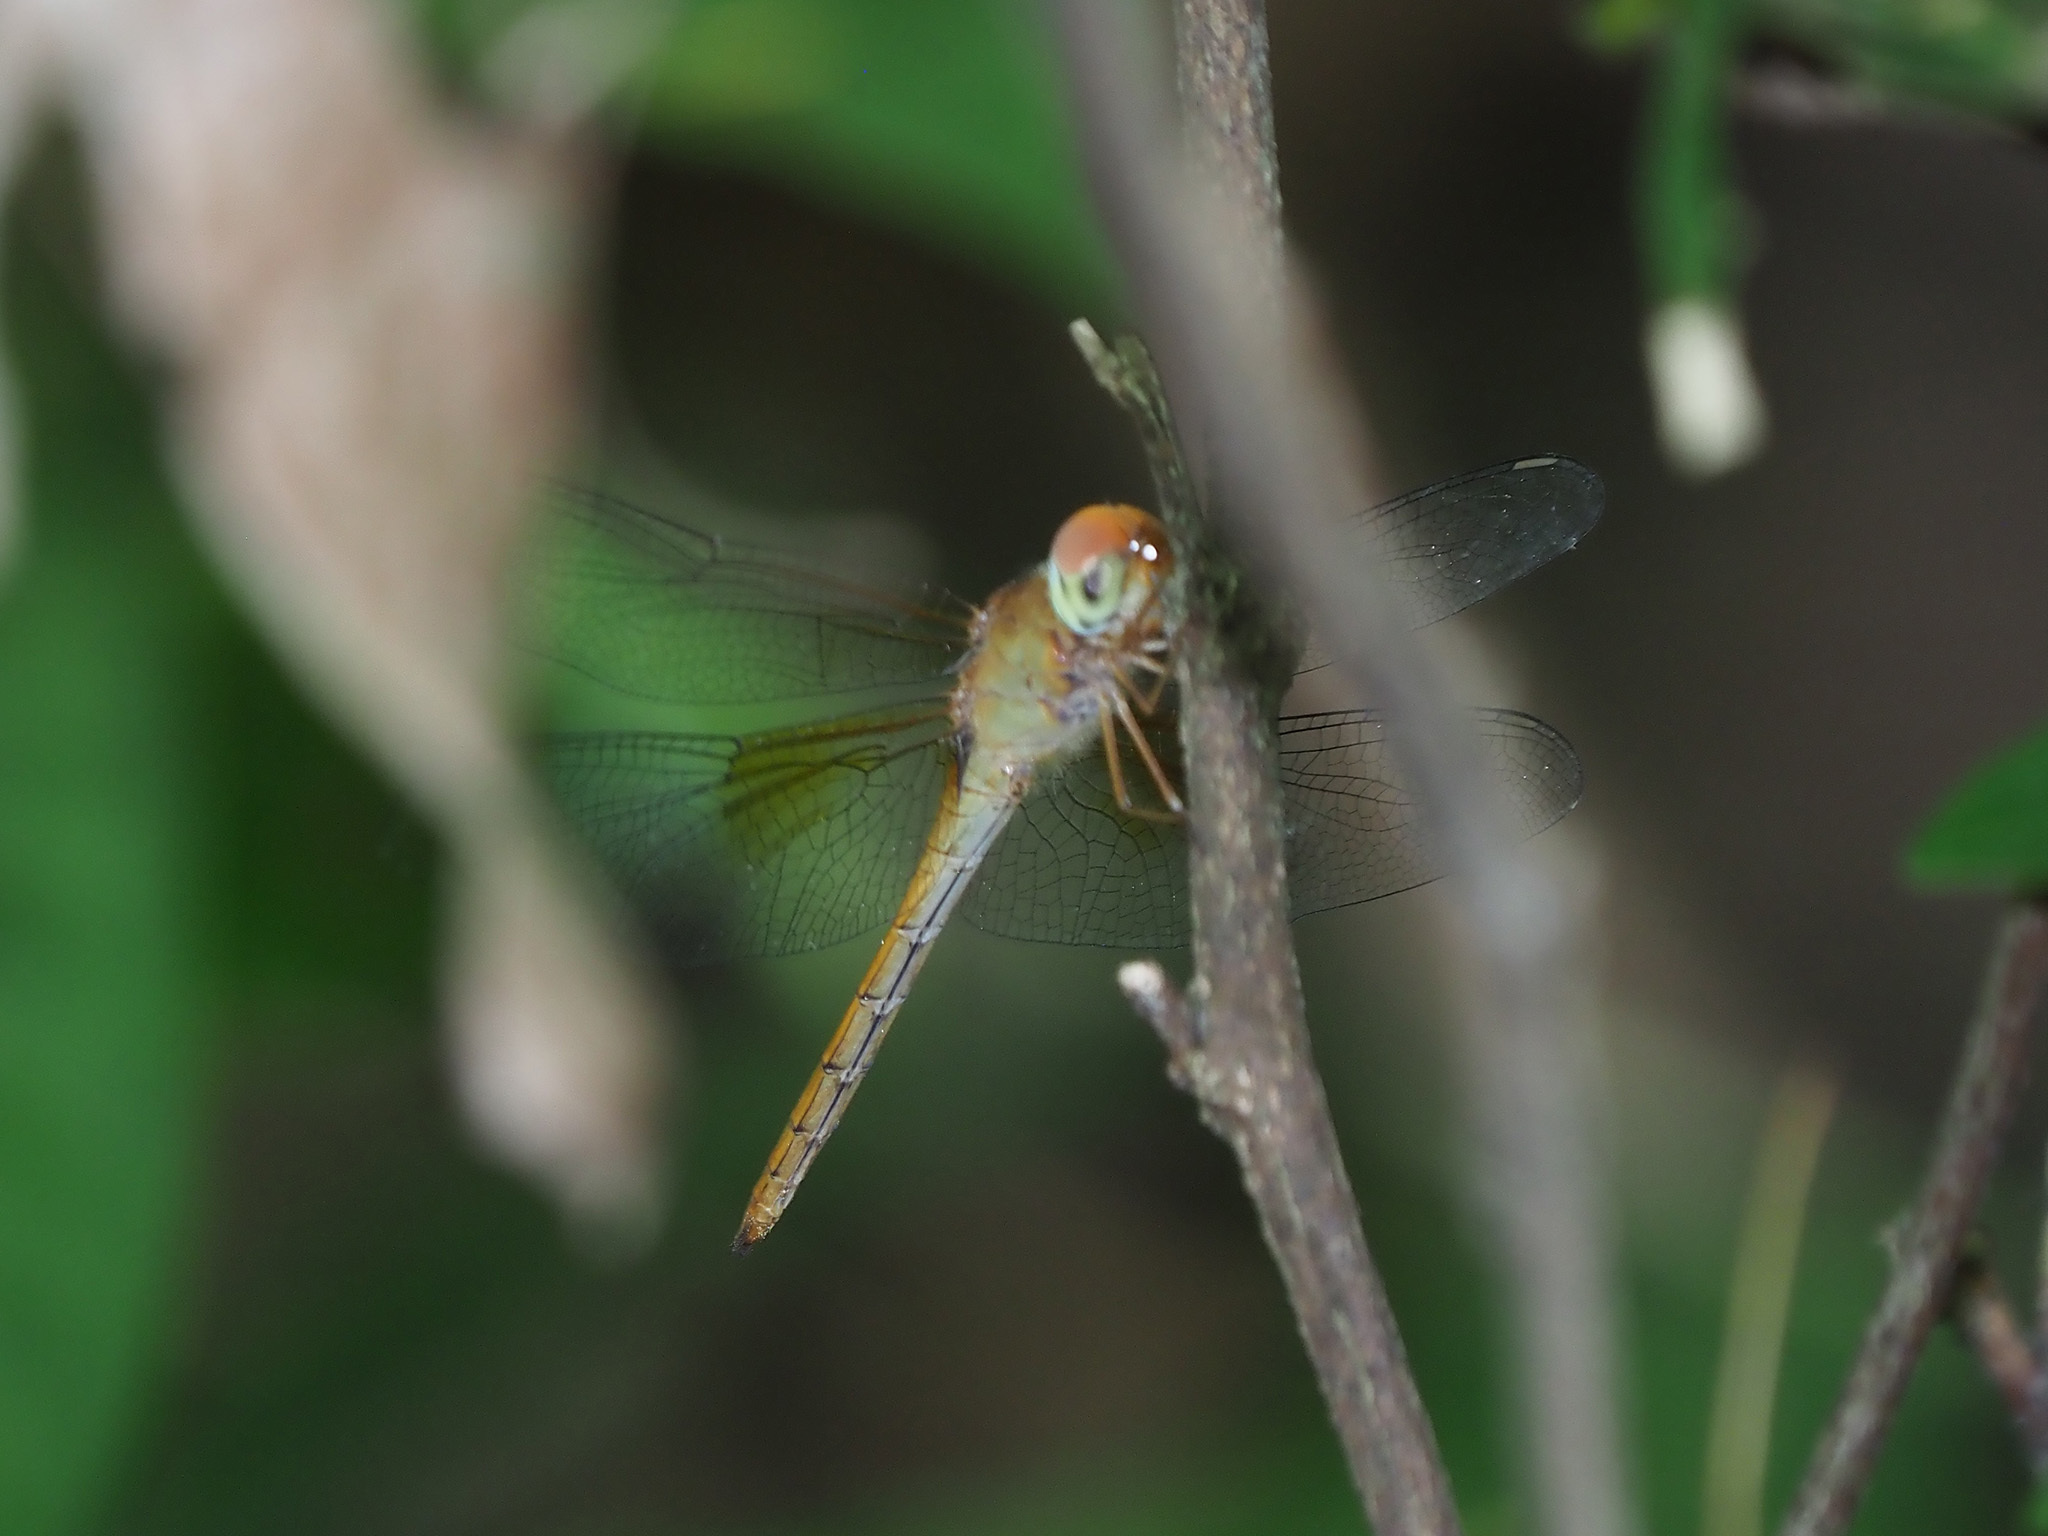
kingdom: Animalia
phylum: Arthropoda
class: Insecta
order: Odonata
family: Libellulidae
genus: Tholymis
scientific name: Tholymis tillarga
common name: Coral-tailed cloud wing
